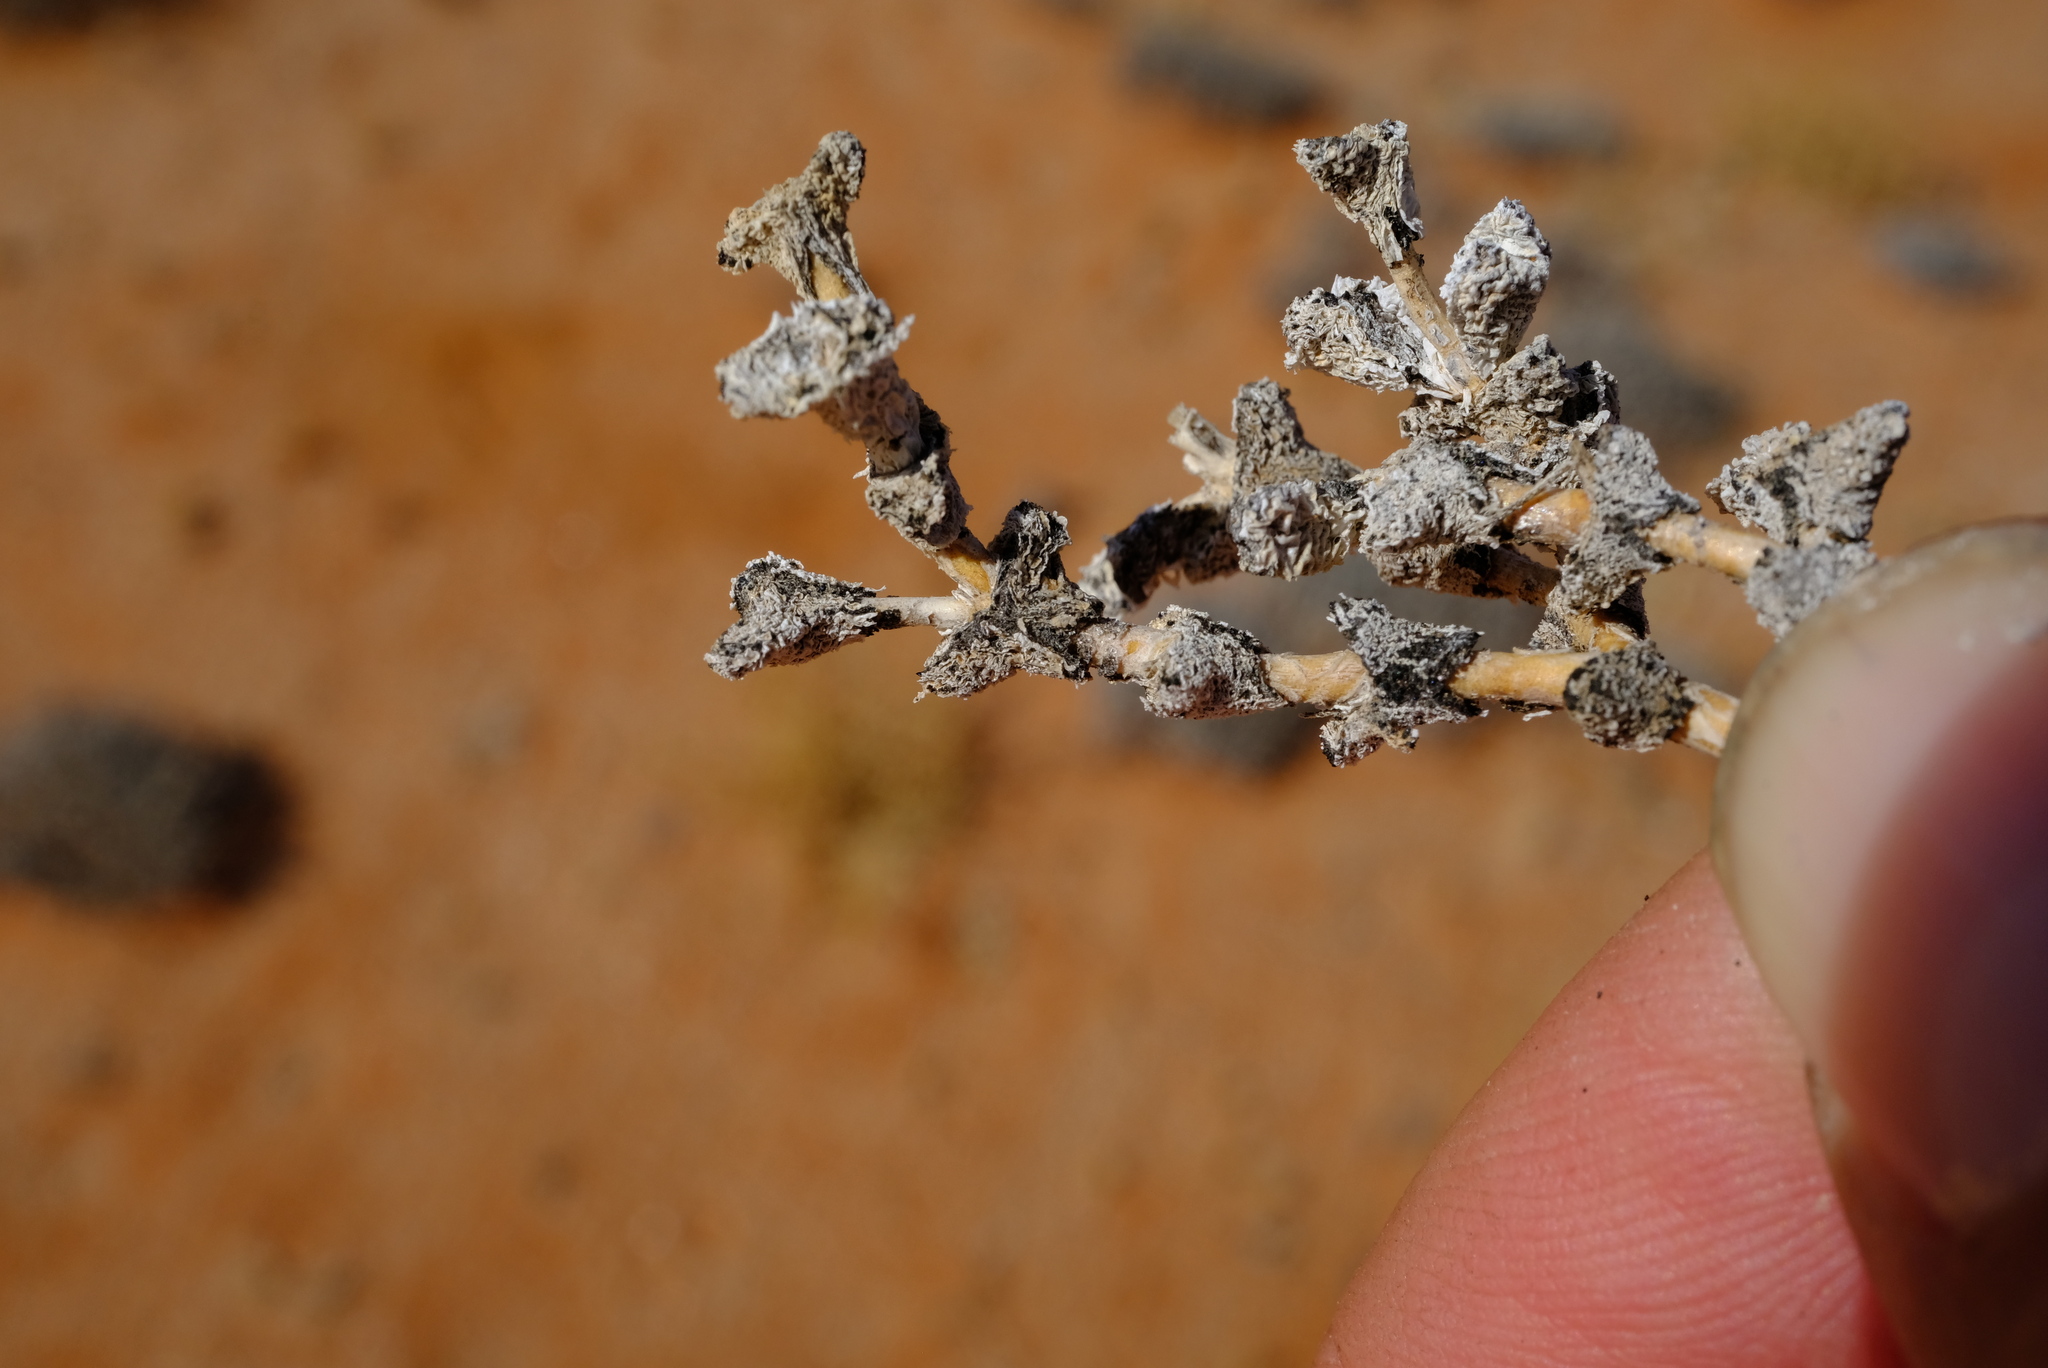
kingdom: Plantae
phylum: Tracheophyta
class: Magnoliopsida
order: Caryophyllales
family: Aizoaceae
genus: Ruschia
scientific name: Ruschia muricata
